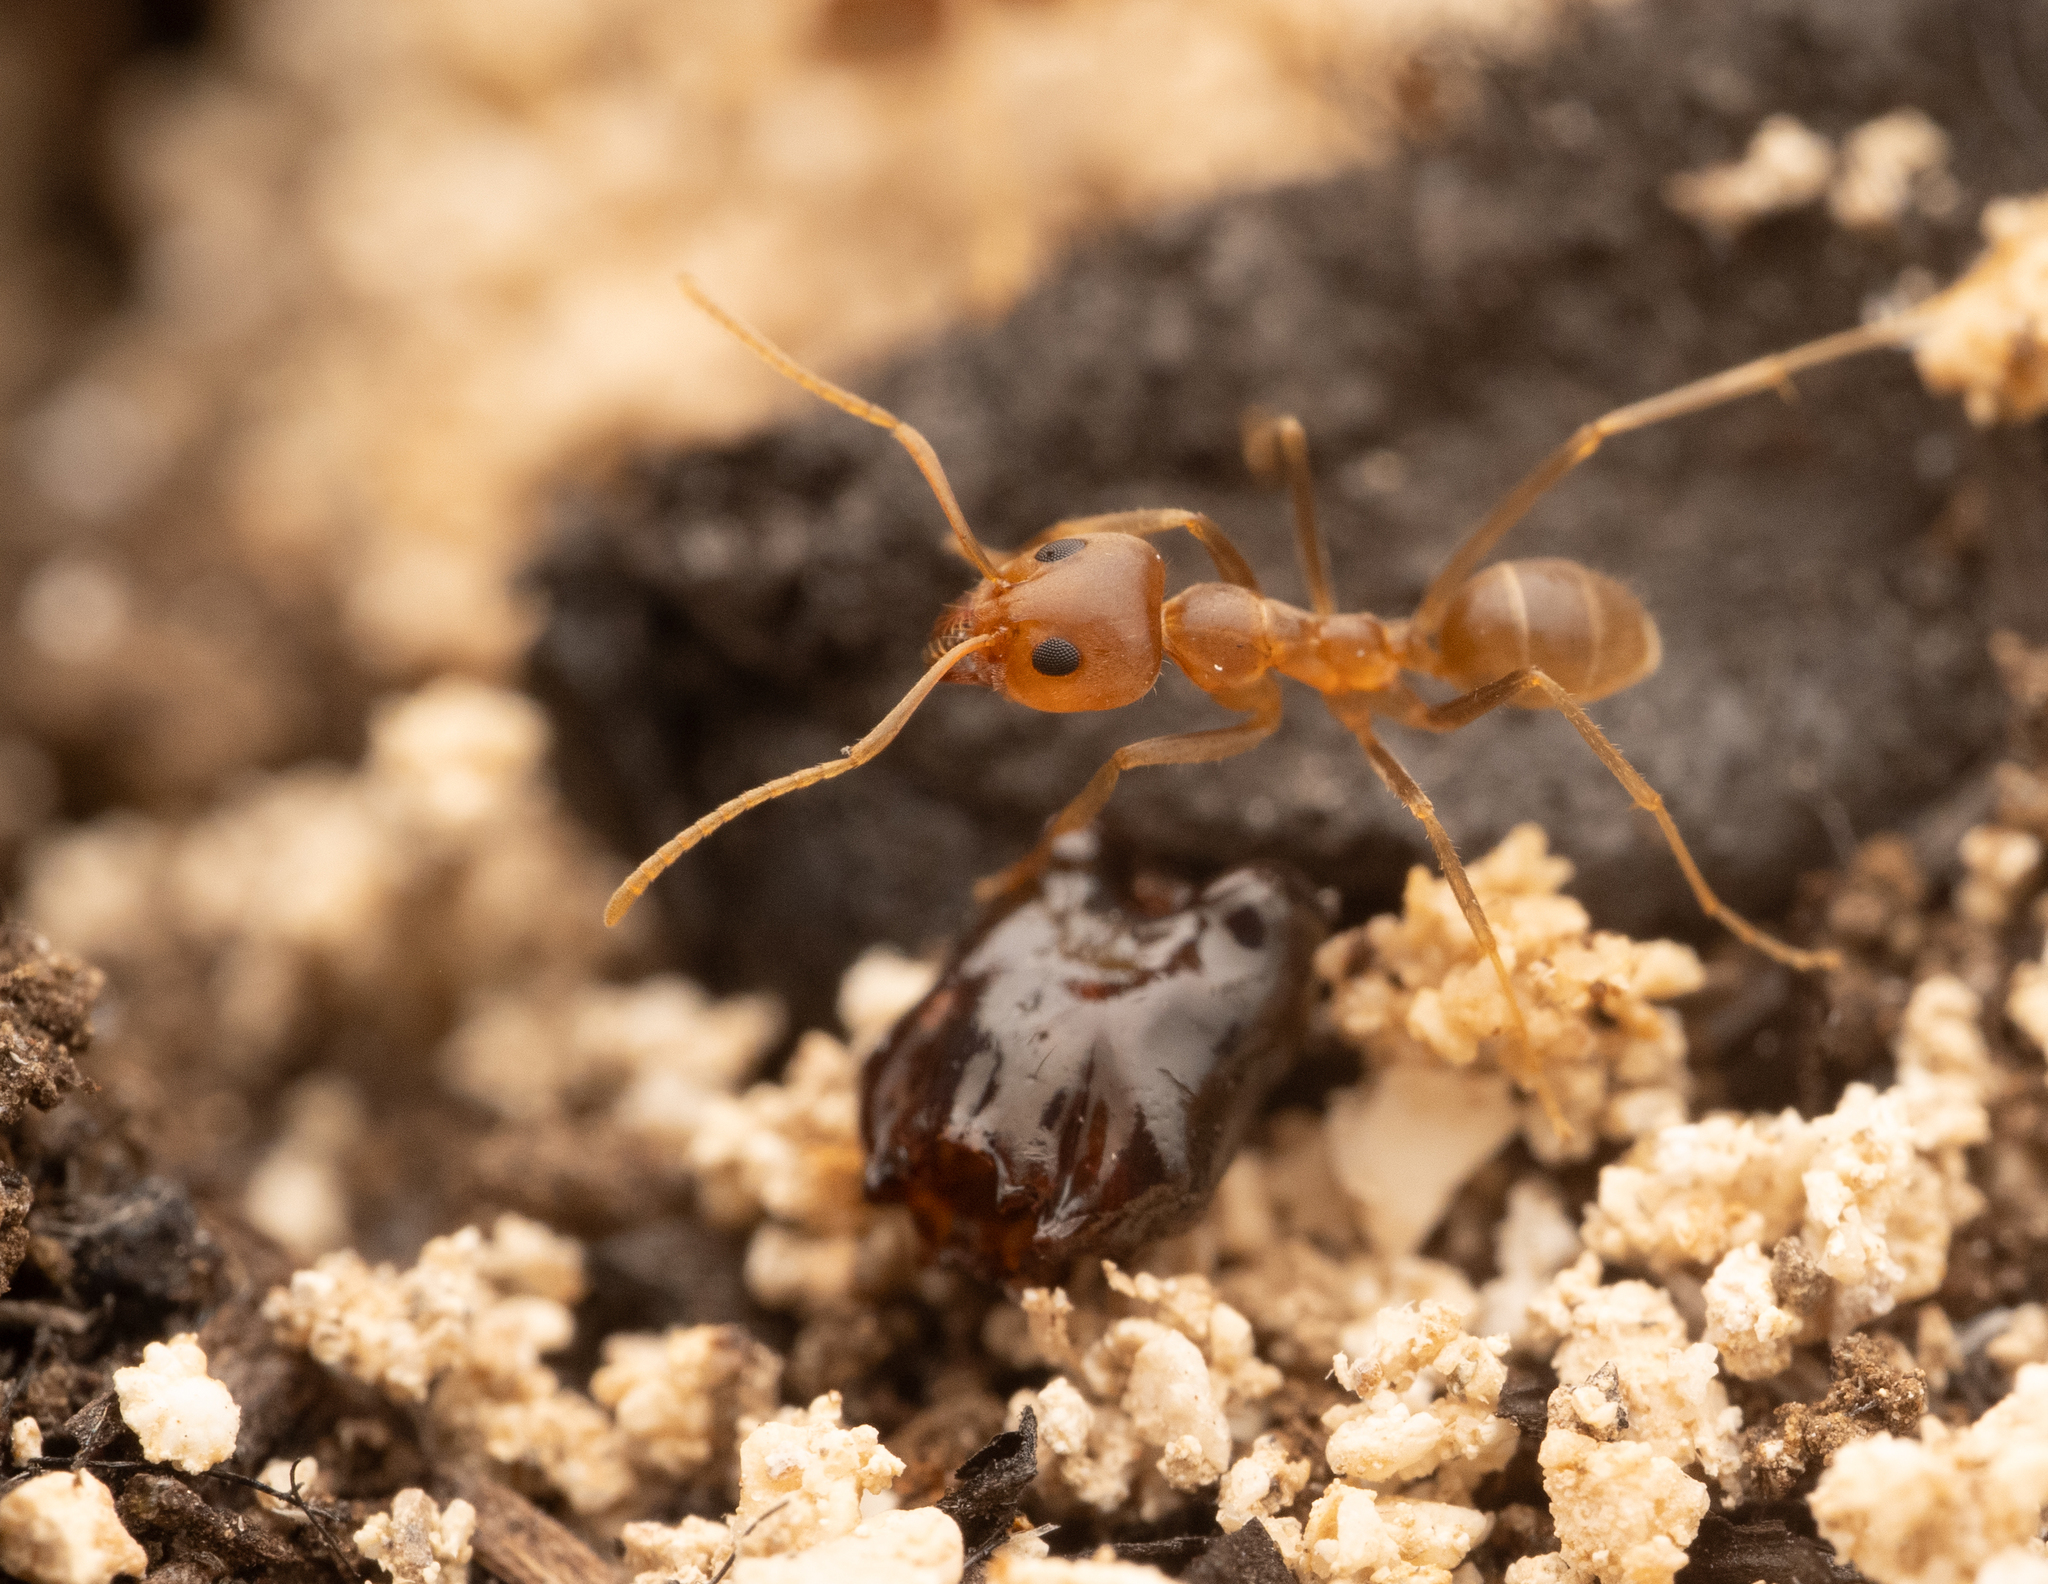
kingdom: Animalia
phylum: Arthropoda
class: Insecta
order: Hymenoptera
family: Formicidae
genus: Iridomyrmex
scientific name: Iridomyrmex pallidus
